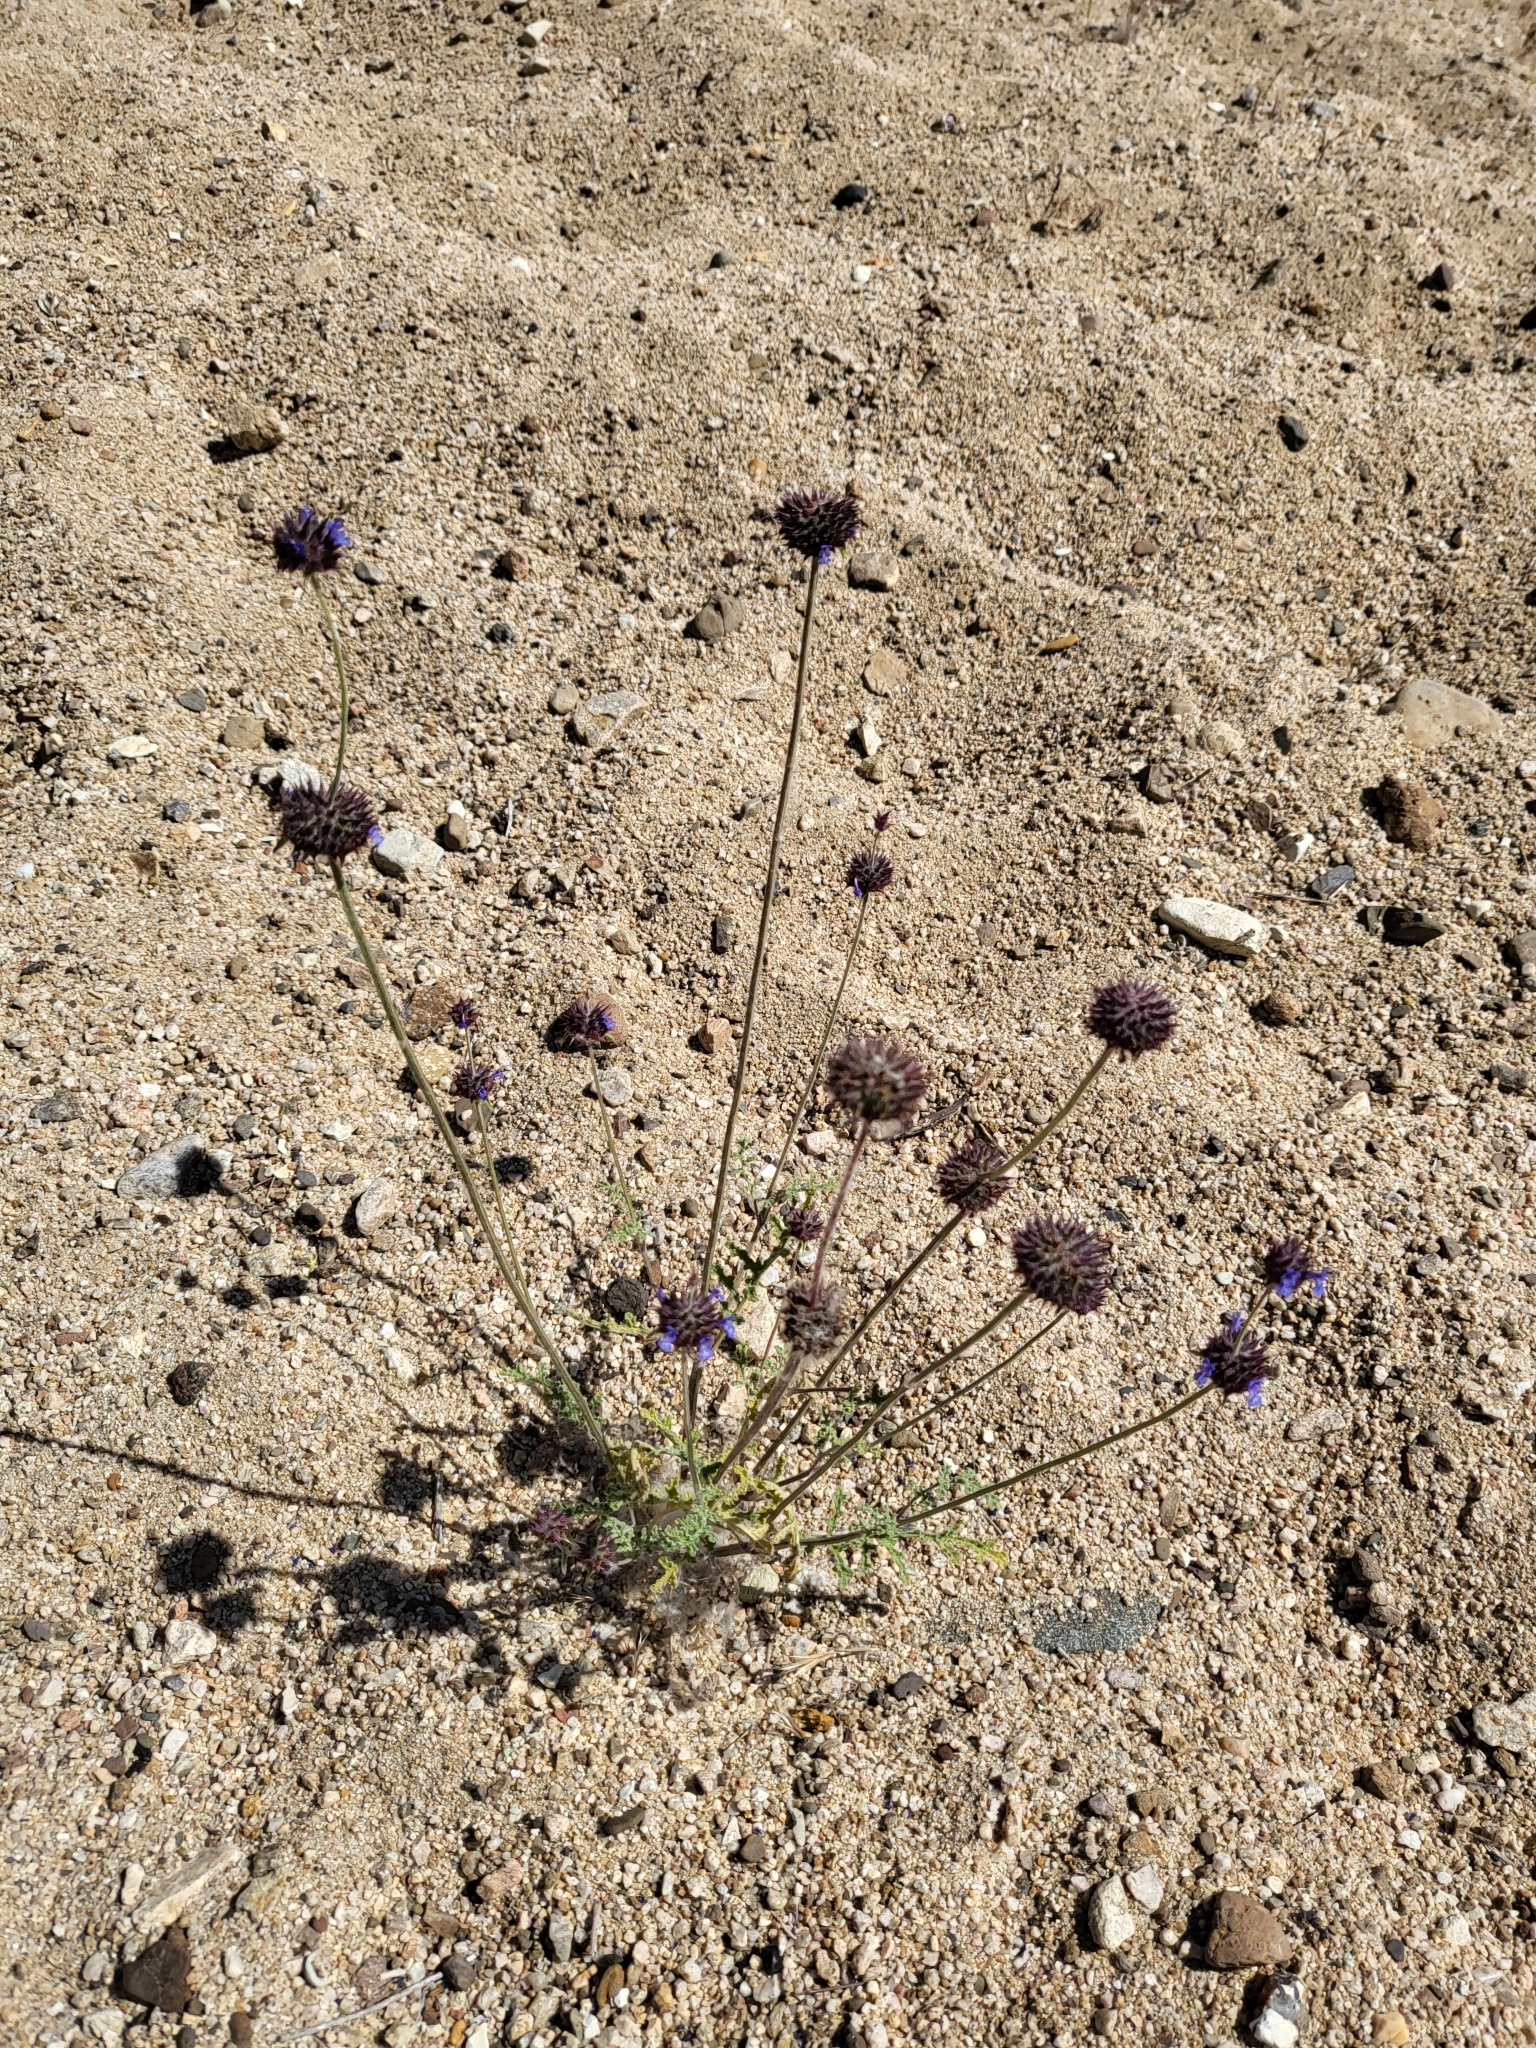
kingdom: Plantae
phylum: Tracheophyta
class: Magnoliopsida
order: Lamiales
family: Lamiaceae
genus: Salvia
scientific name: Salvia columbariae
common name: Chia
